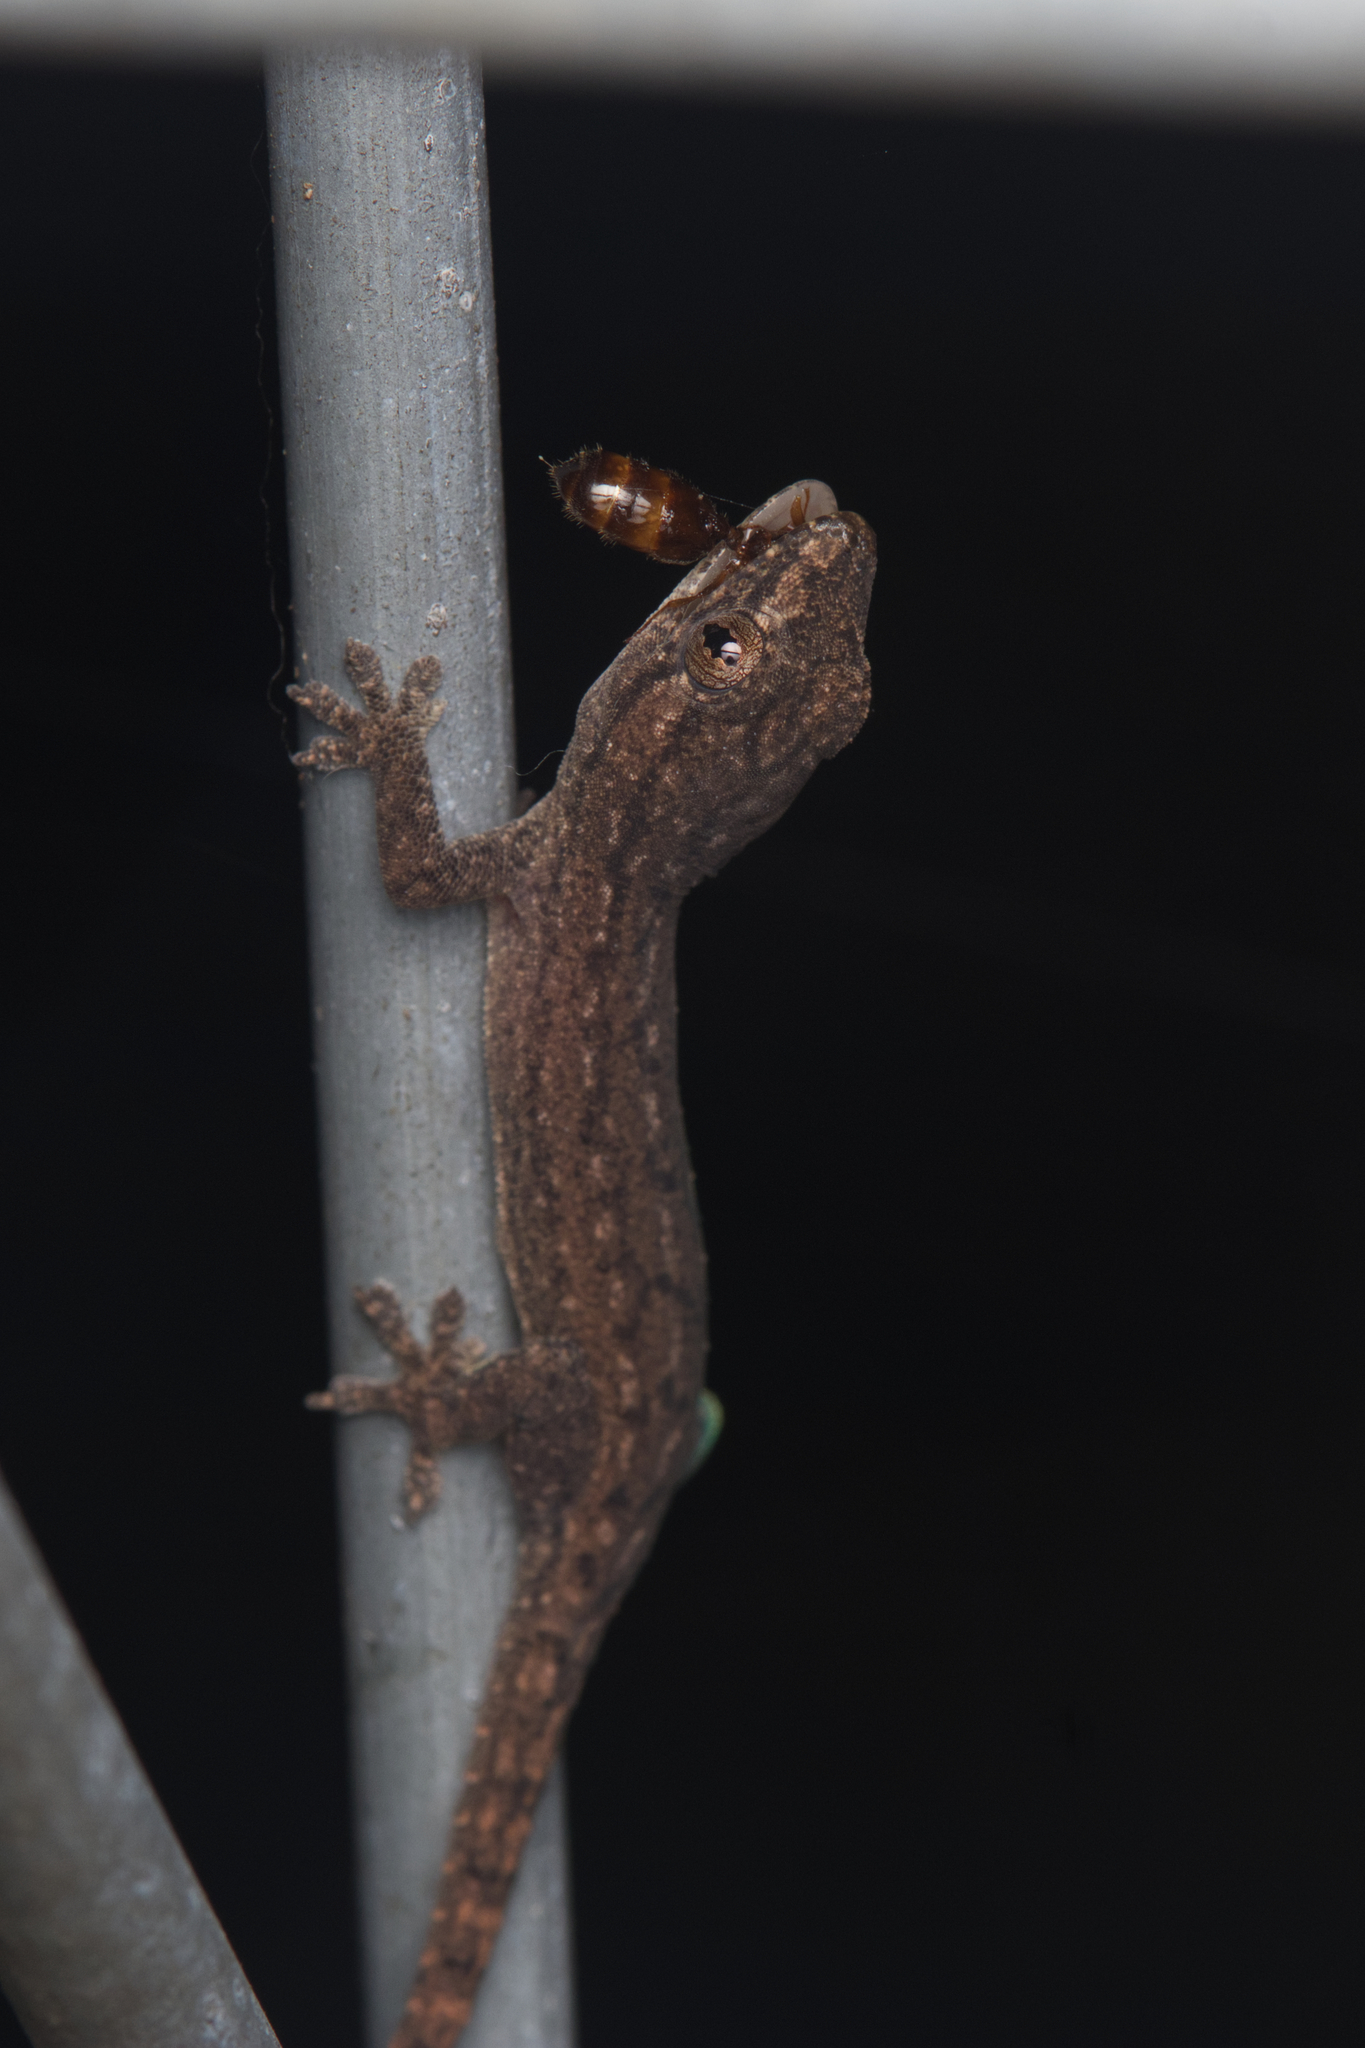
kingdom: Animalia
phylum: Chordata
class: Squamata
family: Gekkonidae
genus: Hemidactylus
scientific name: Hemidactylus frenatus
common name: Common house gecko
